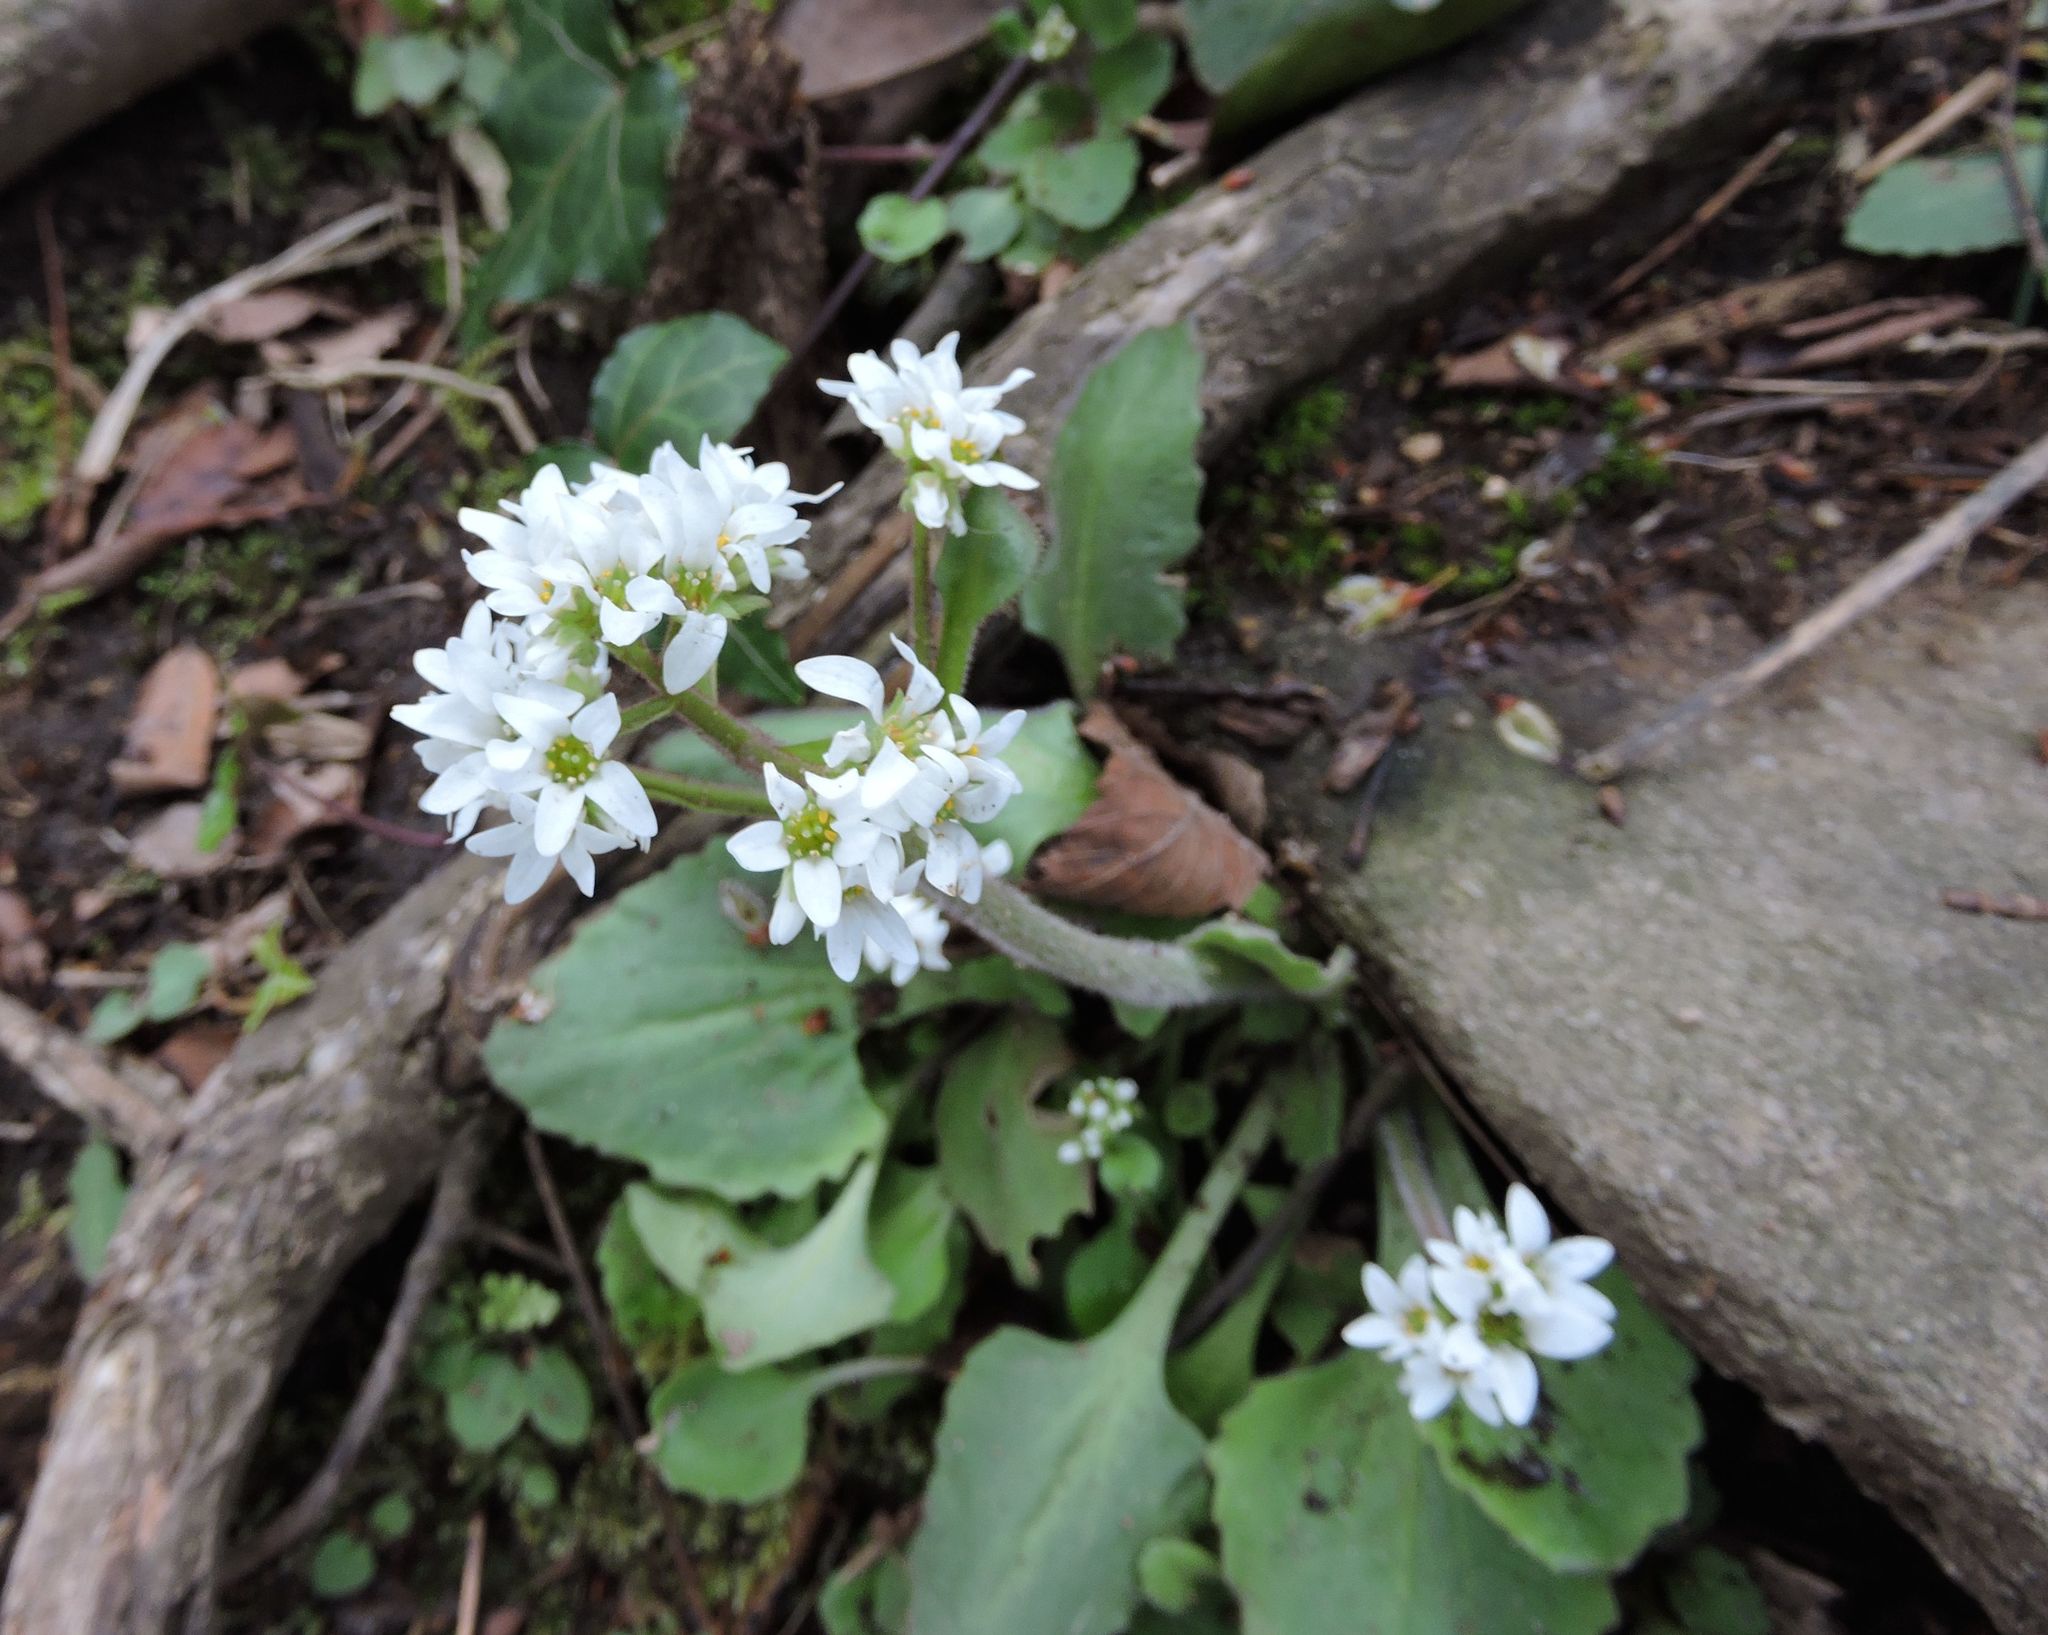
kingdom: Plantae
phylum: Tracheophyta
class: Magnoliopsida
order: Saxifragales
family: Saxifragaceae
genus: Micranthes
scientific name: Micranthes virginiensis
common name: Early saxifrage
